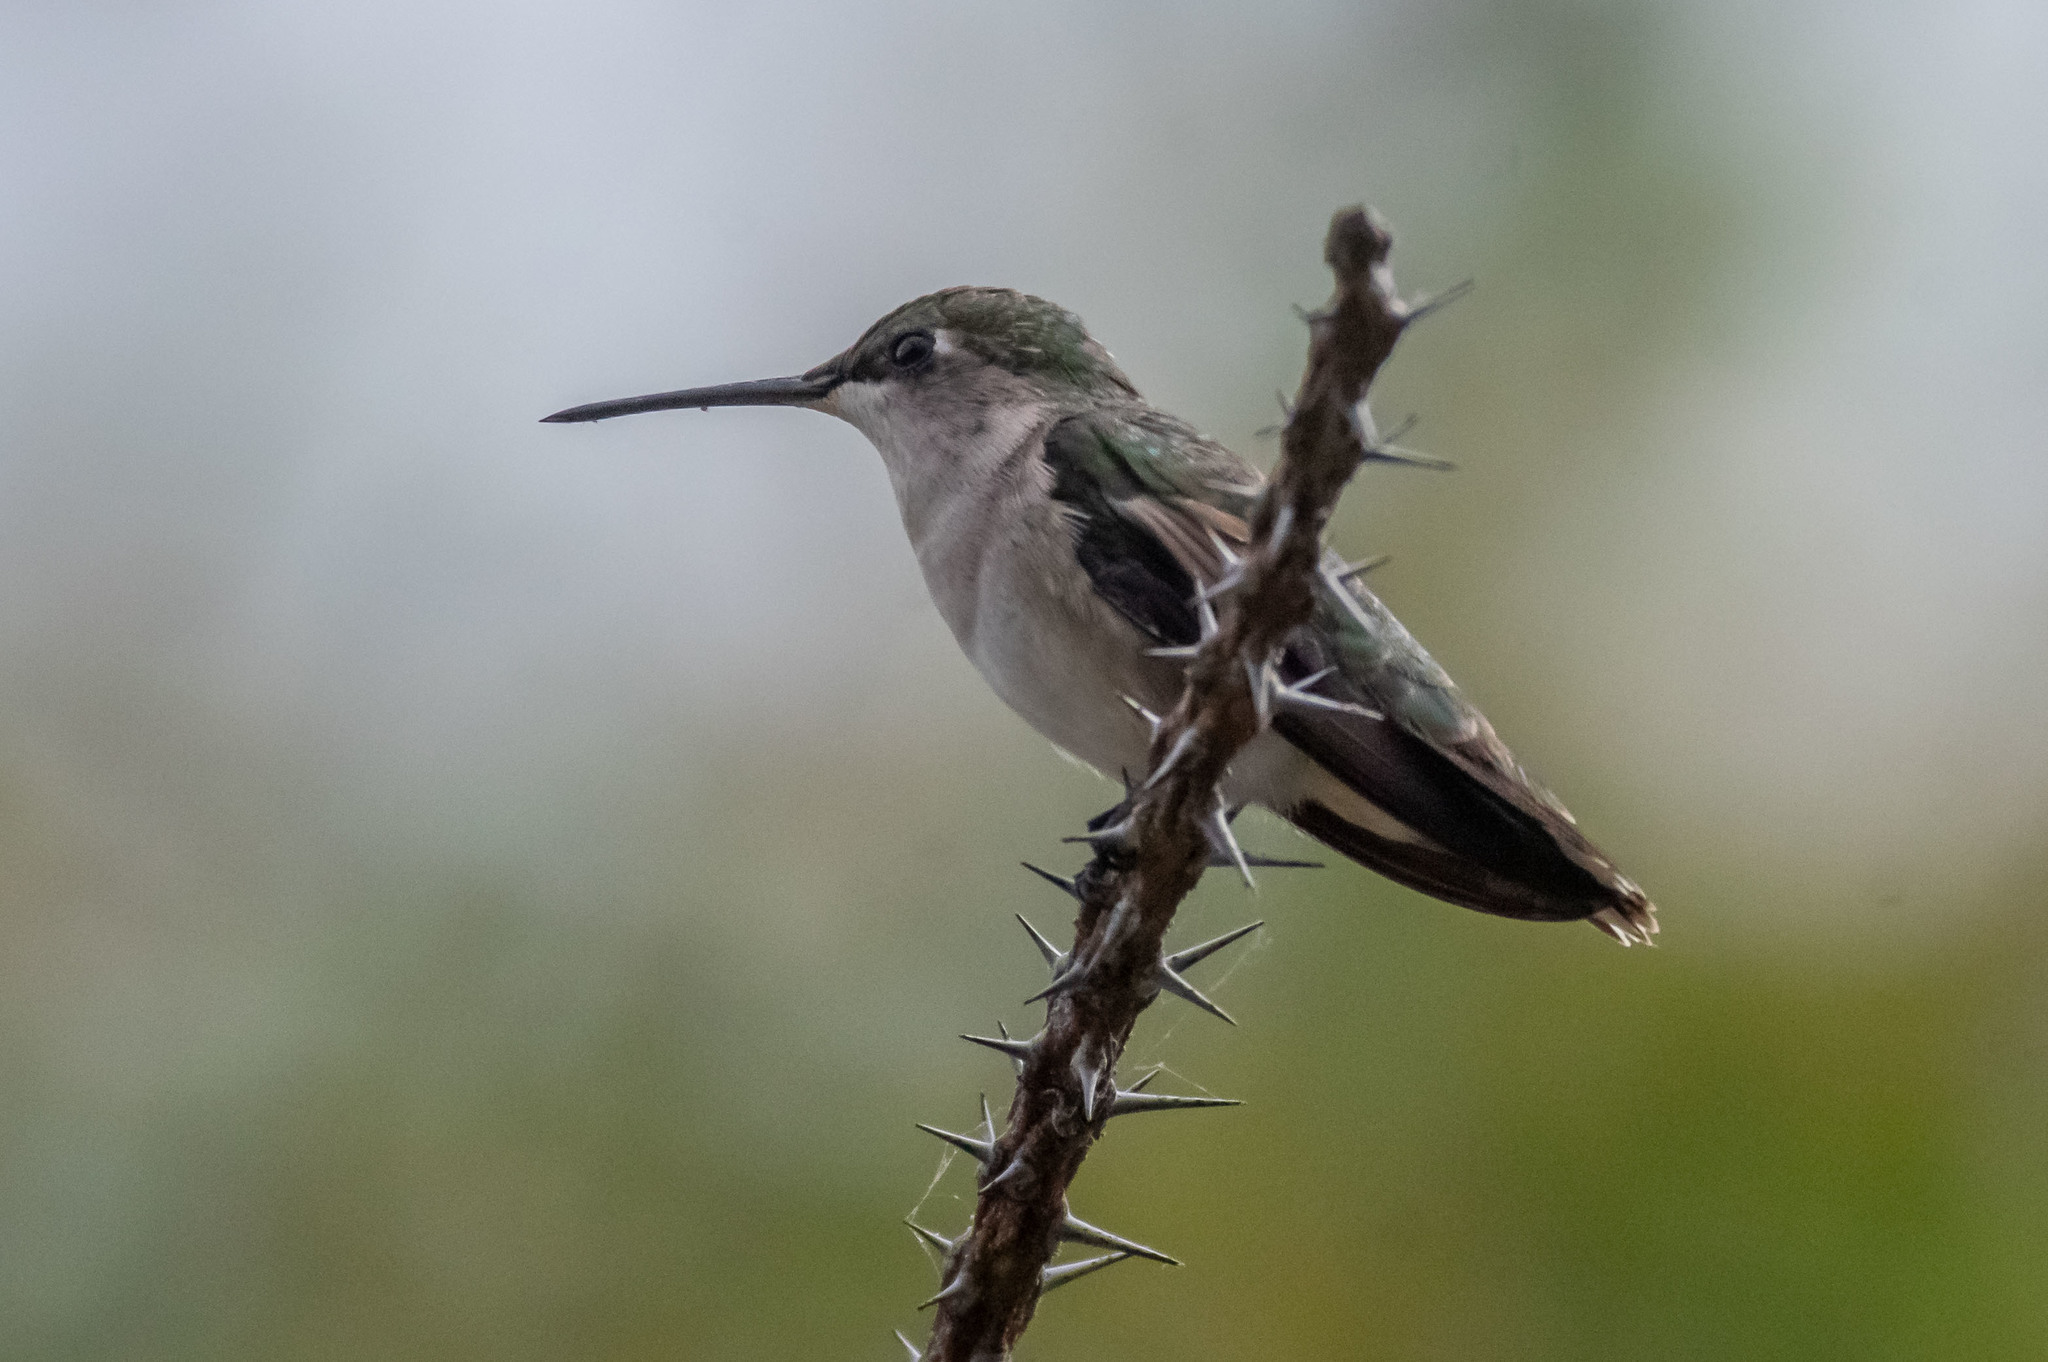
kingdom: Animalia
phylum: Chordata
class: Aves
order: Apodiformes
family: Trochilidae
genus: Archilochus
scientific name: Archilochus colubris
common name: Ruby-throated hummingbird
